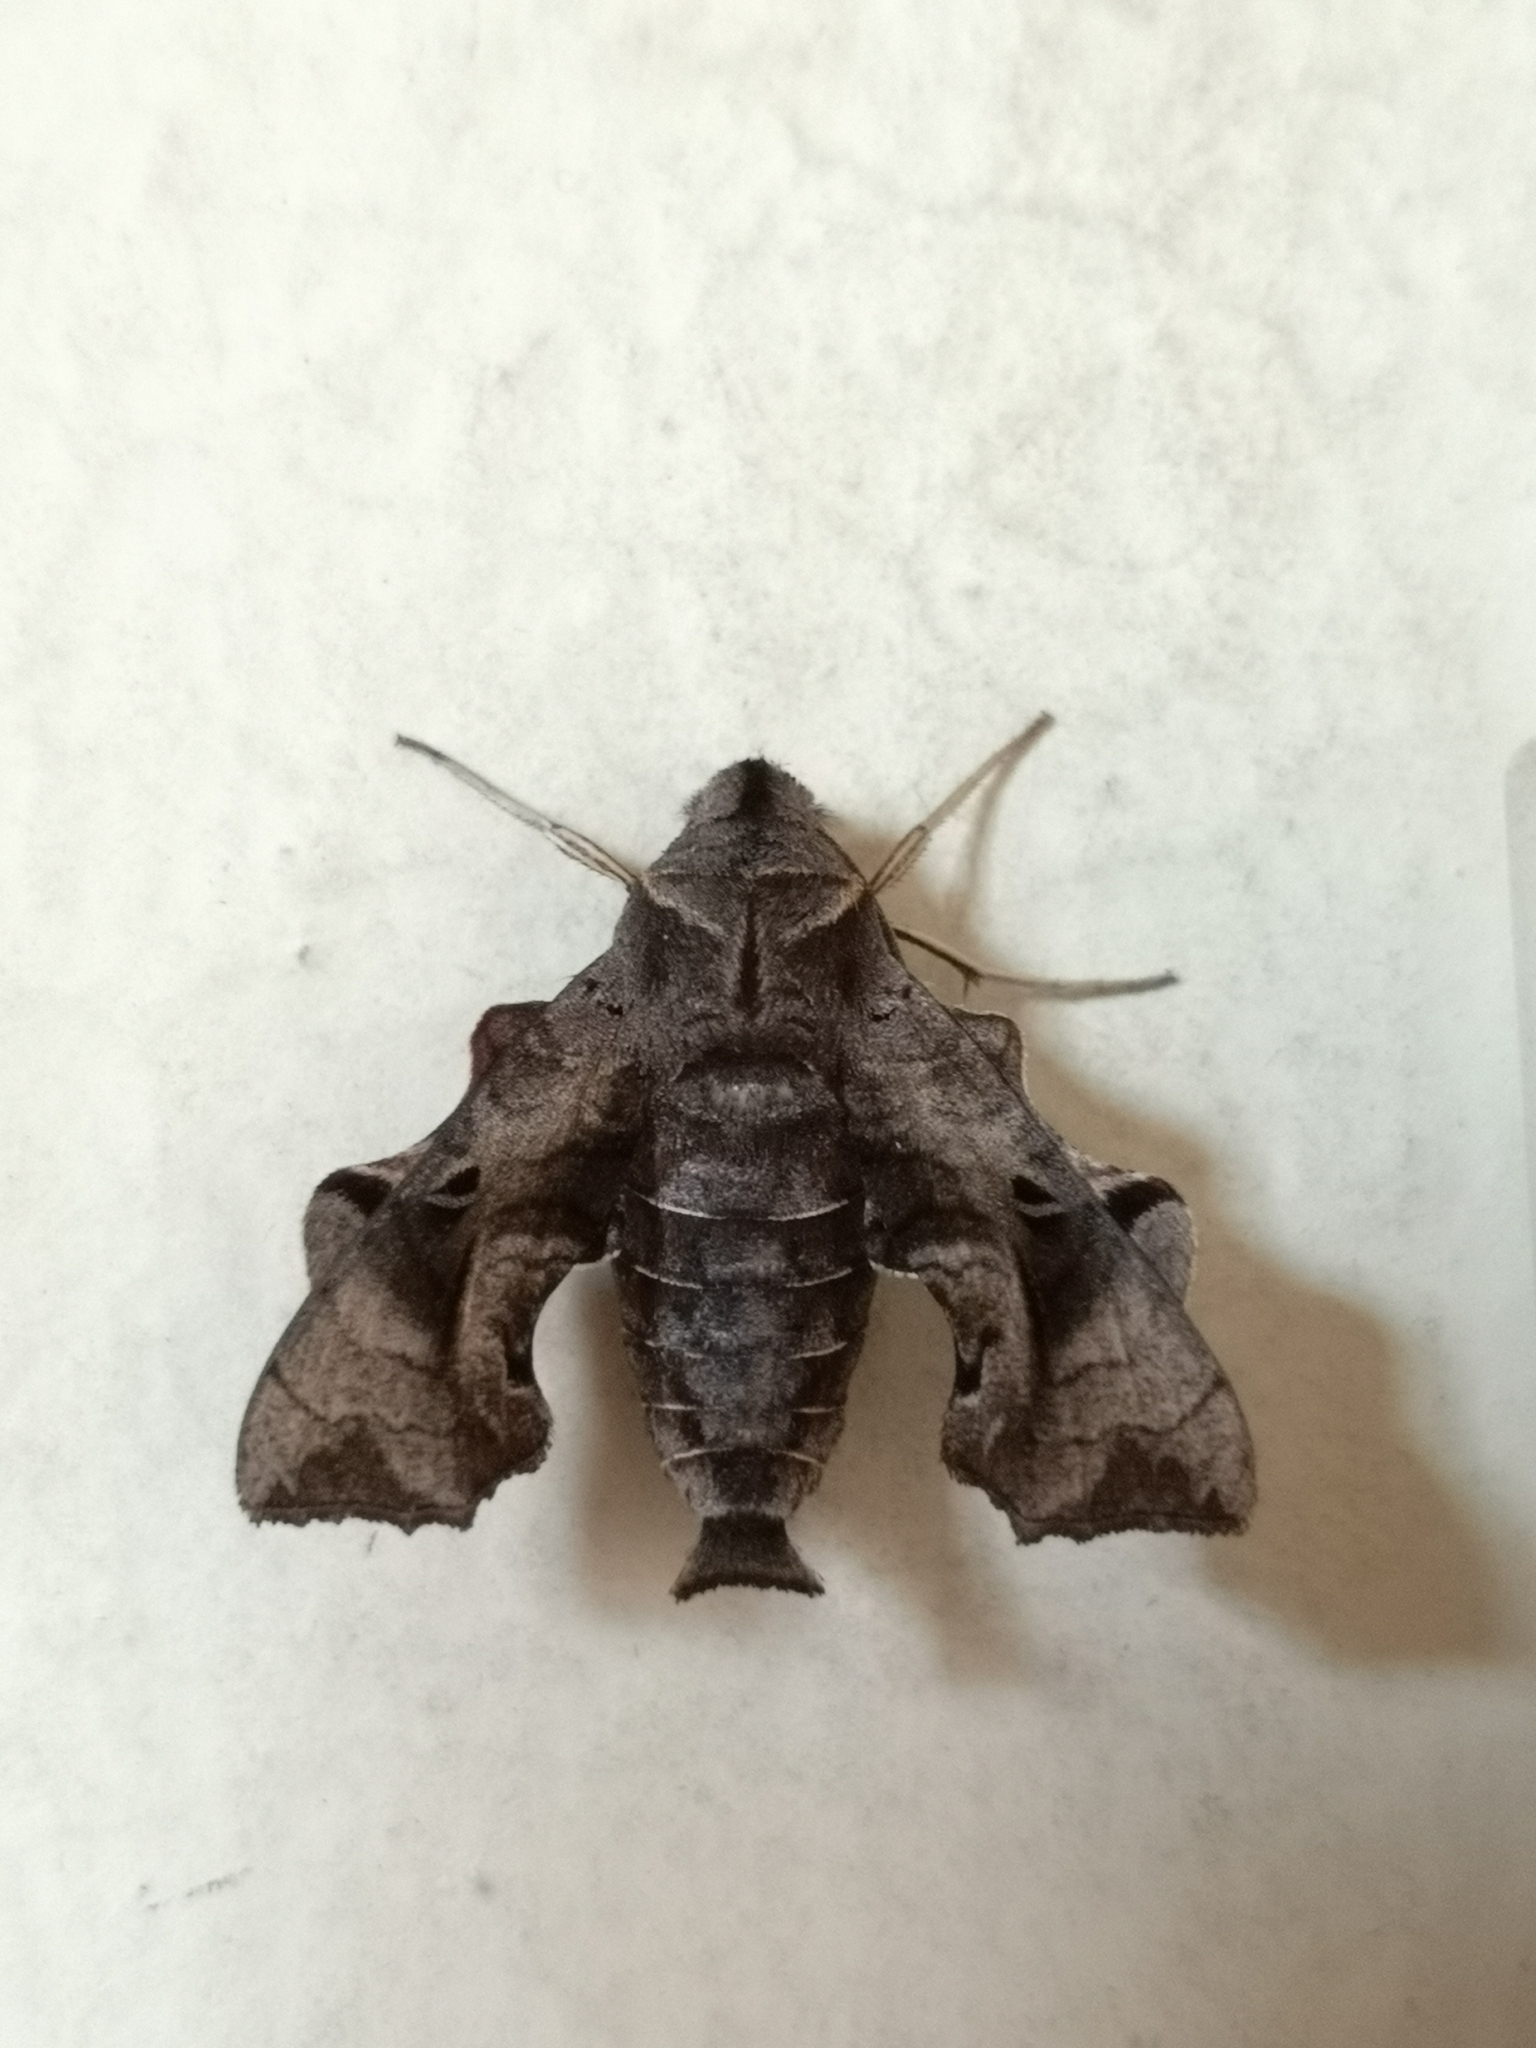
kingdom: Animalia
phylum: Arthropoda
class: Insecta
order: Lepidoptera
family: Sphingidae
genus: Neogurelca
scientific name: Neogurelca hyas
